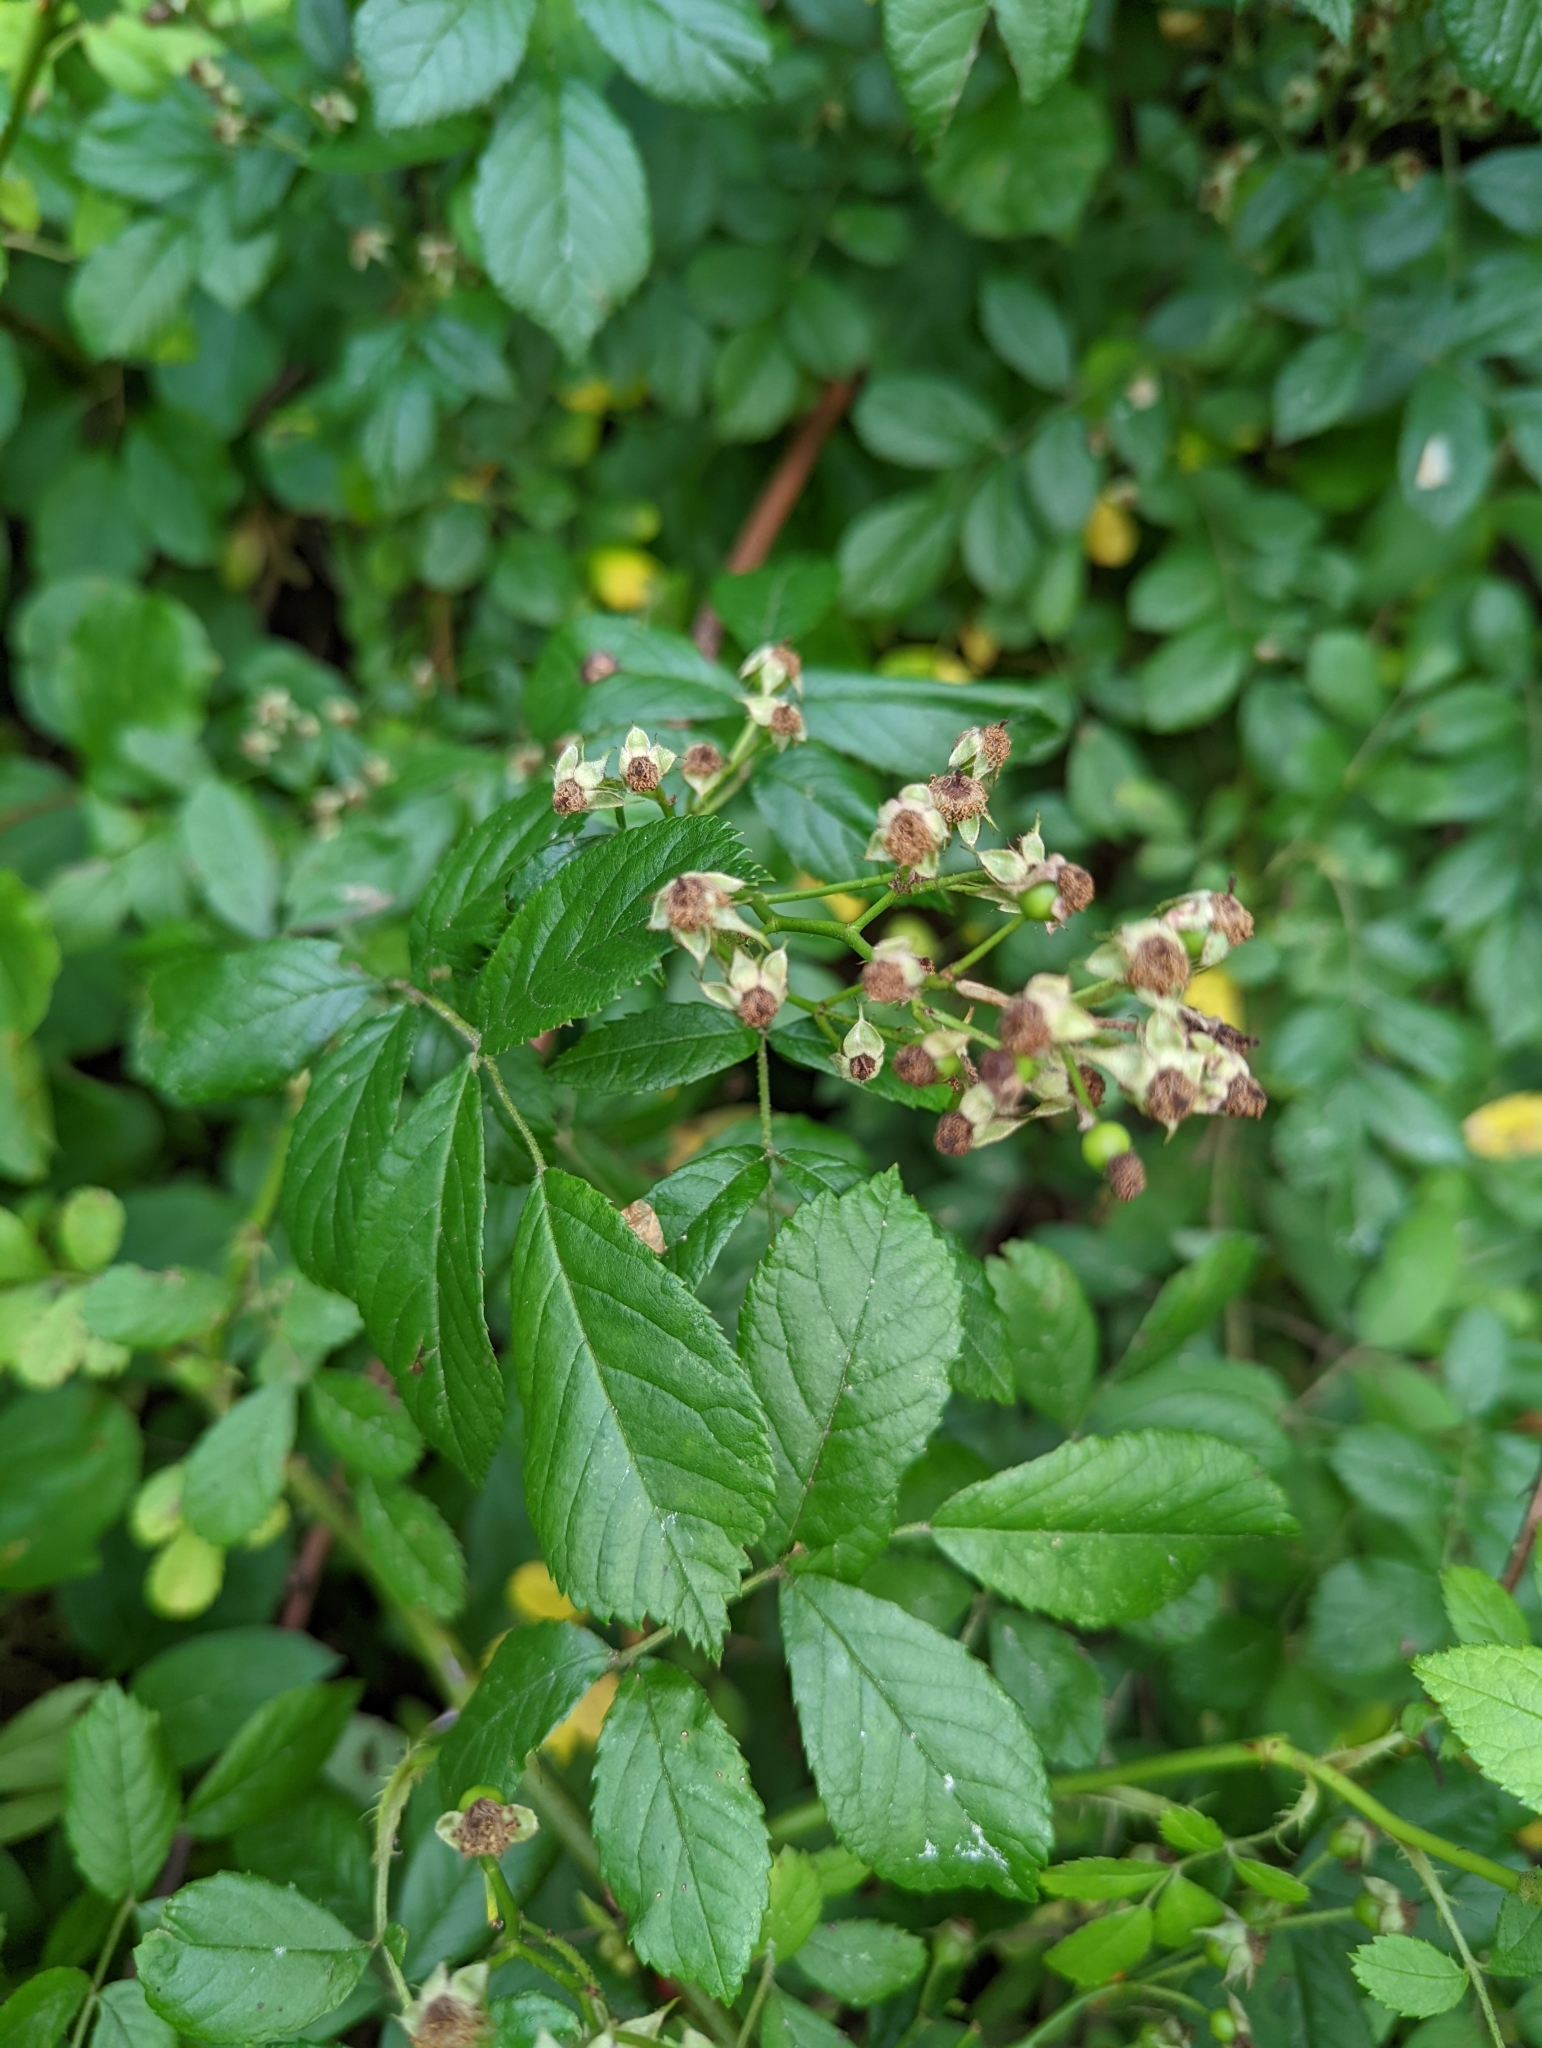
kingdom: Plantae
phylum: Tracheophyta
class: Magnoliopsida
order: Rosales
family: Rosaceae
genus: Rosa
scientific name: Rosa multiflora
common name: Multiflora rose
